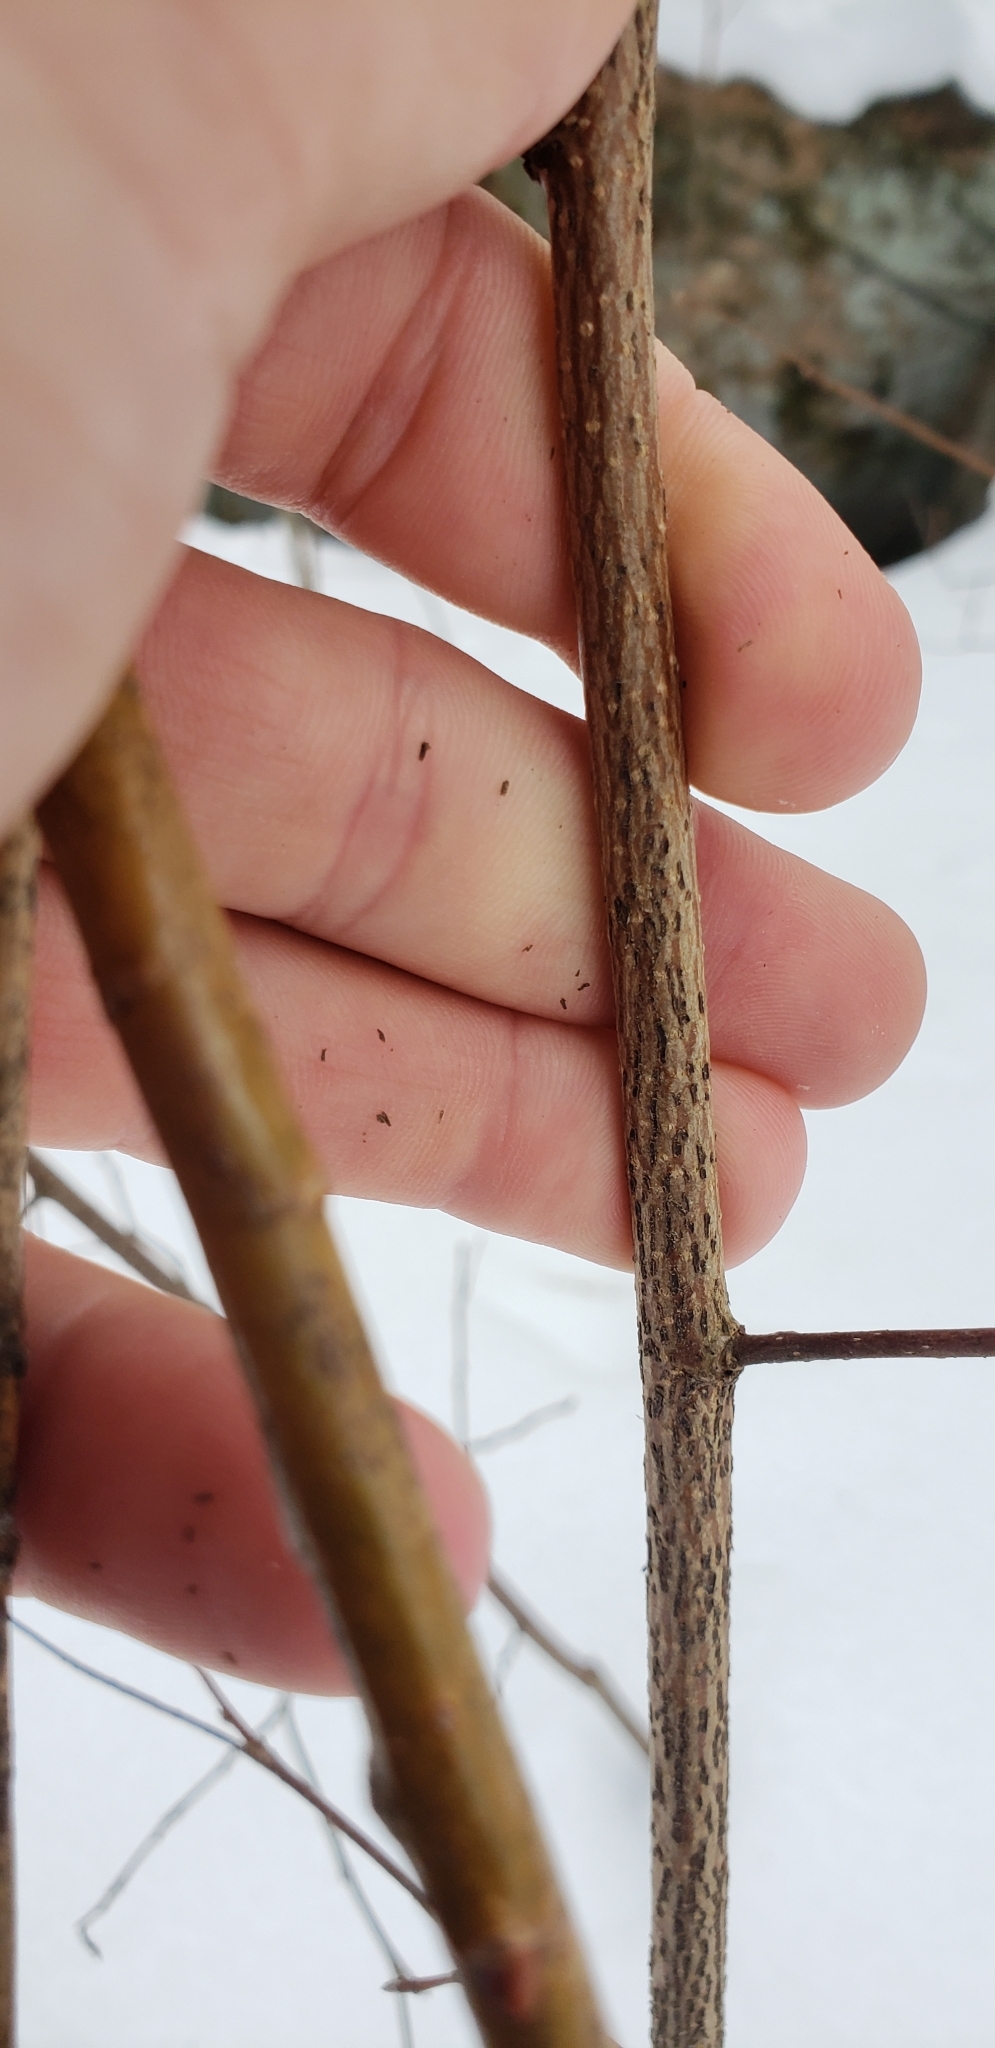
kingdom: Plantae
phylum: Tracheophyta
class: Magnoliopsida
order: Fagales
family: Betulaceae
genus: Corylus
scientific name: Corylus cornuta
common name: Beaked hazel
